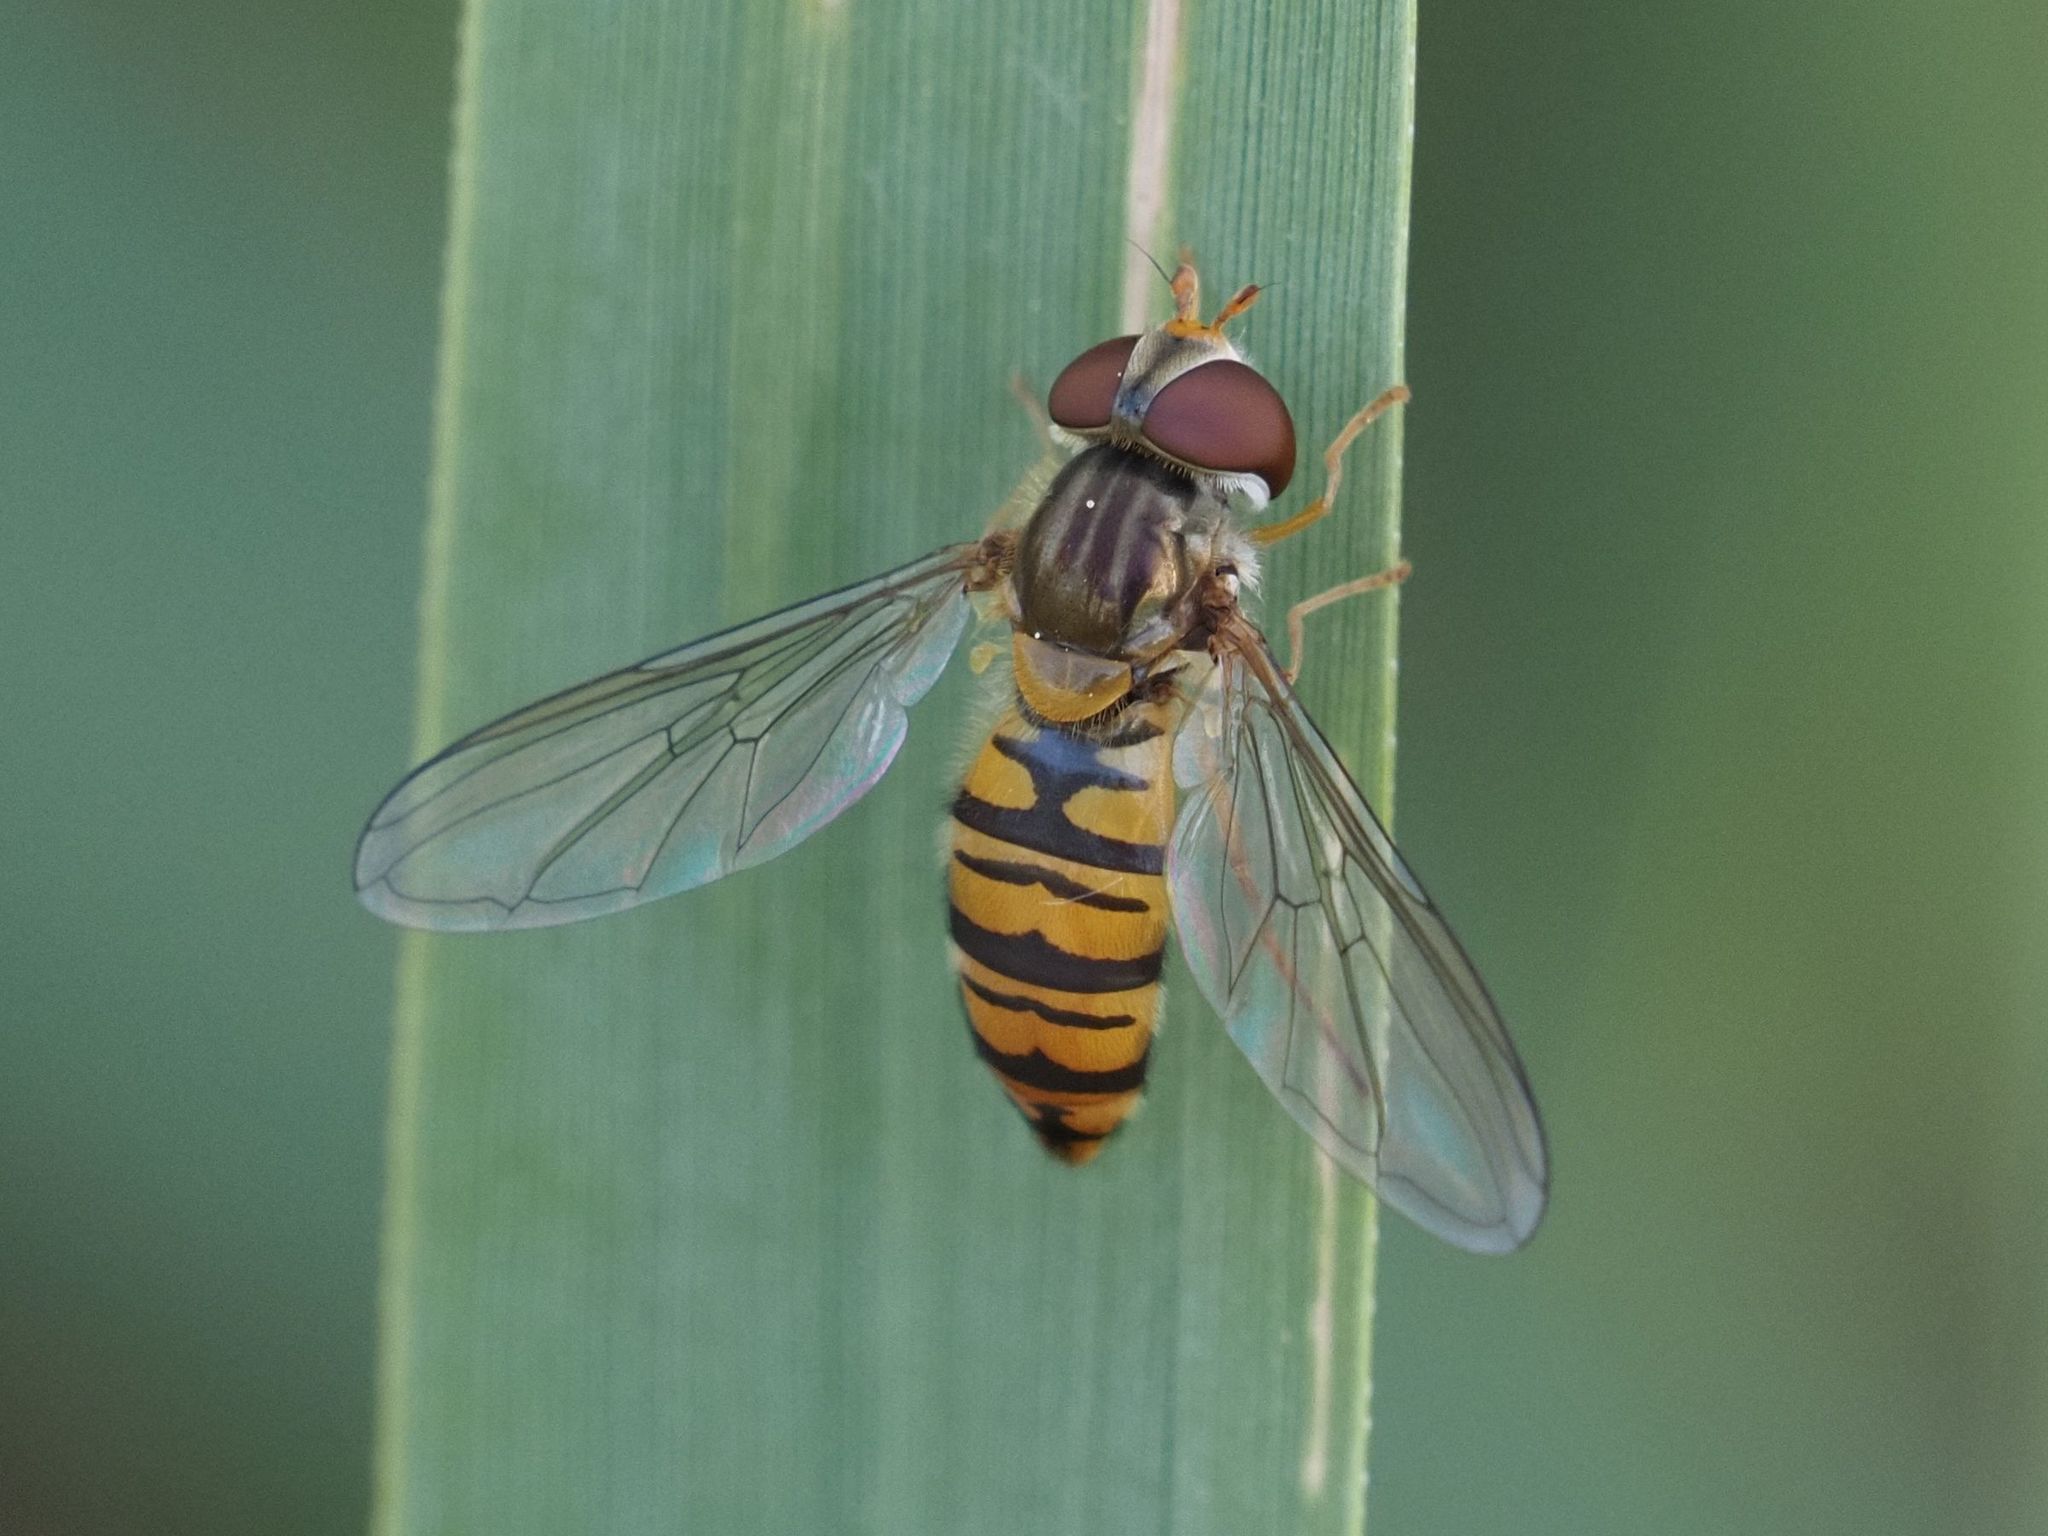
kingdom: Animalia
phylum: Arthropoda
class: Insecta
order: Diptera
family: Syrphidae
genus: Episyrphus
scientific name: Episyrphus balteatus
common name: Marmalade hoverfly
